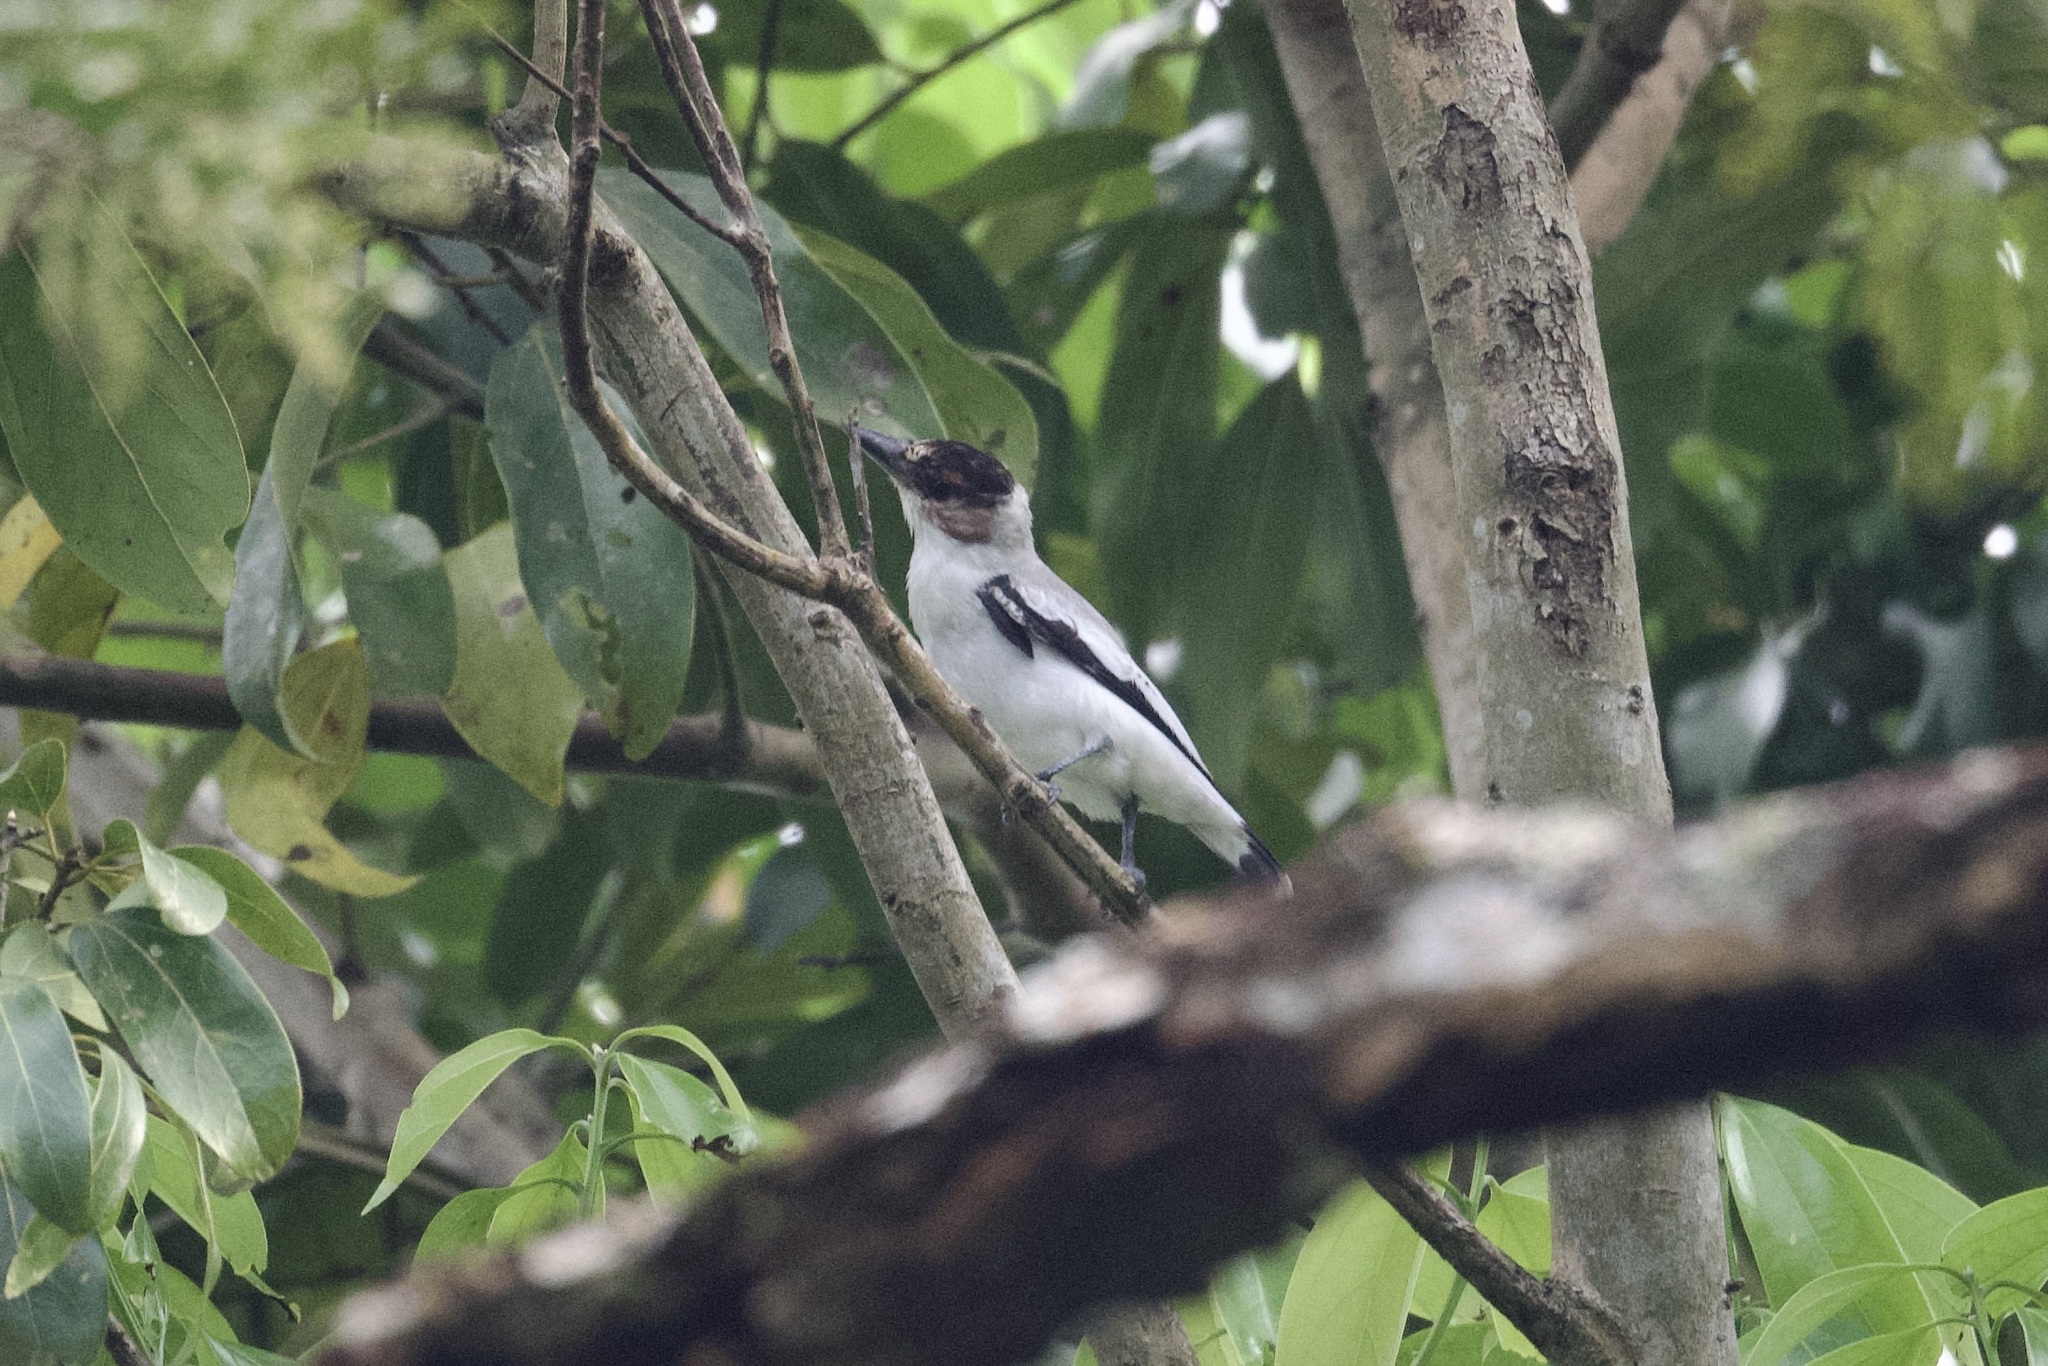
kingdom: Animalia
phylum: Chordata
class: Aves
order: Passeriformes
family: Cotingidae
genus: Tityra
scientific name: Tityra inquisitor
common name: Black-crowned tityra
